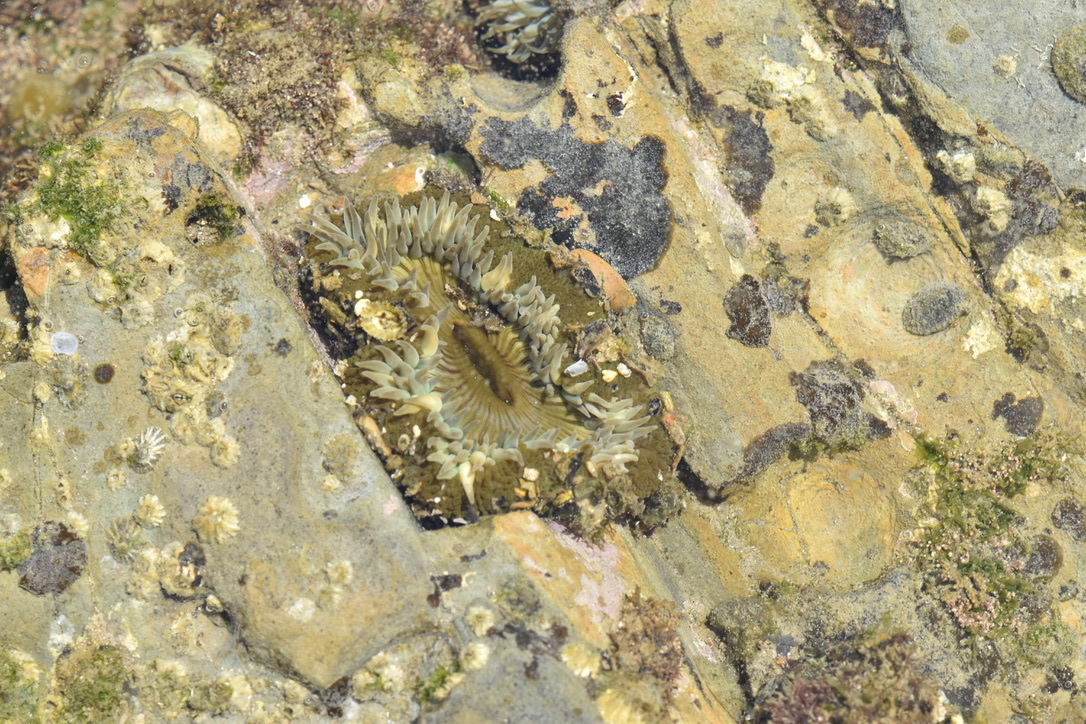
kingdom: Animalia
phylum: Cnidaria
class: Anthozoa
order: Actiniaria
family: Actiniidae
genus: Anthopleura
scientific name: Anthopleura sola
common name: Sun anemone
